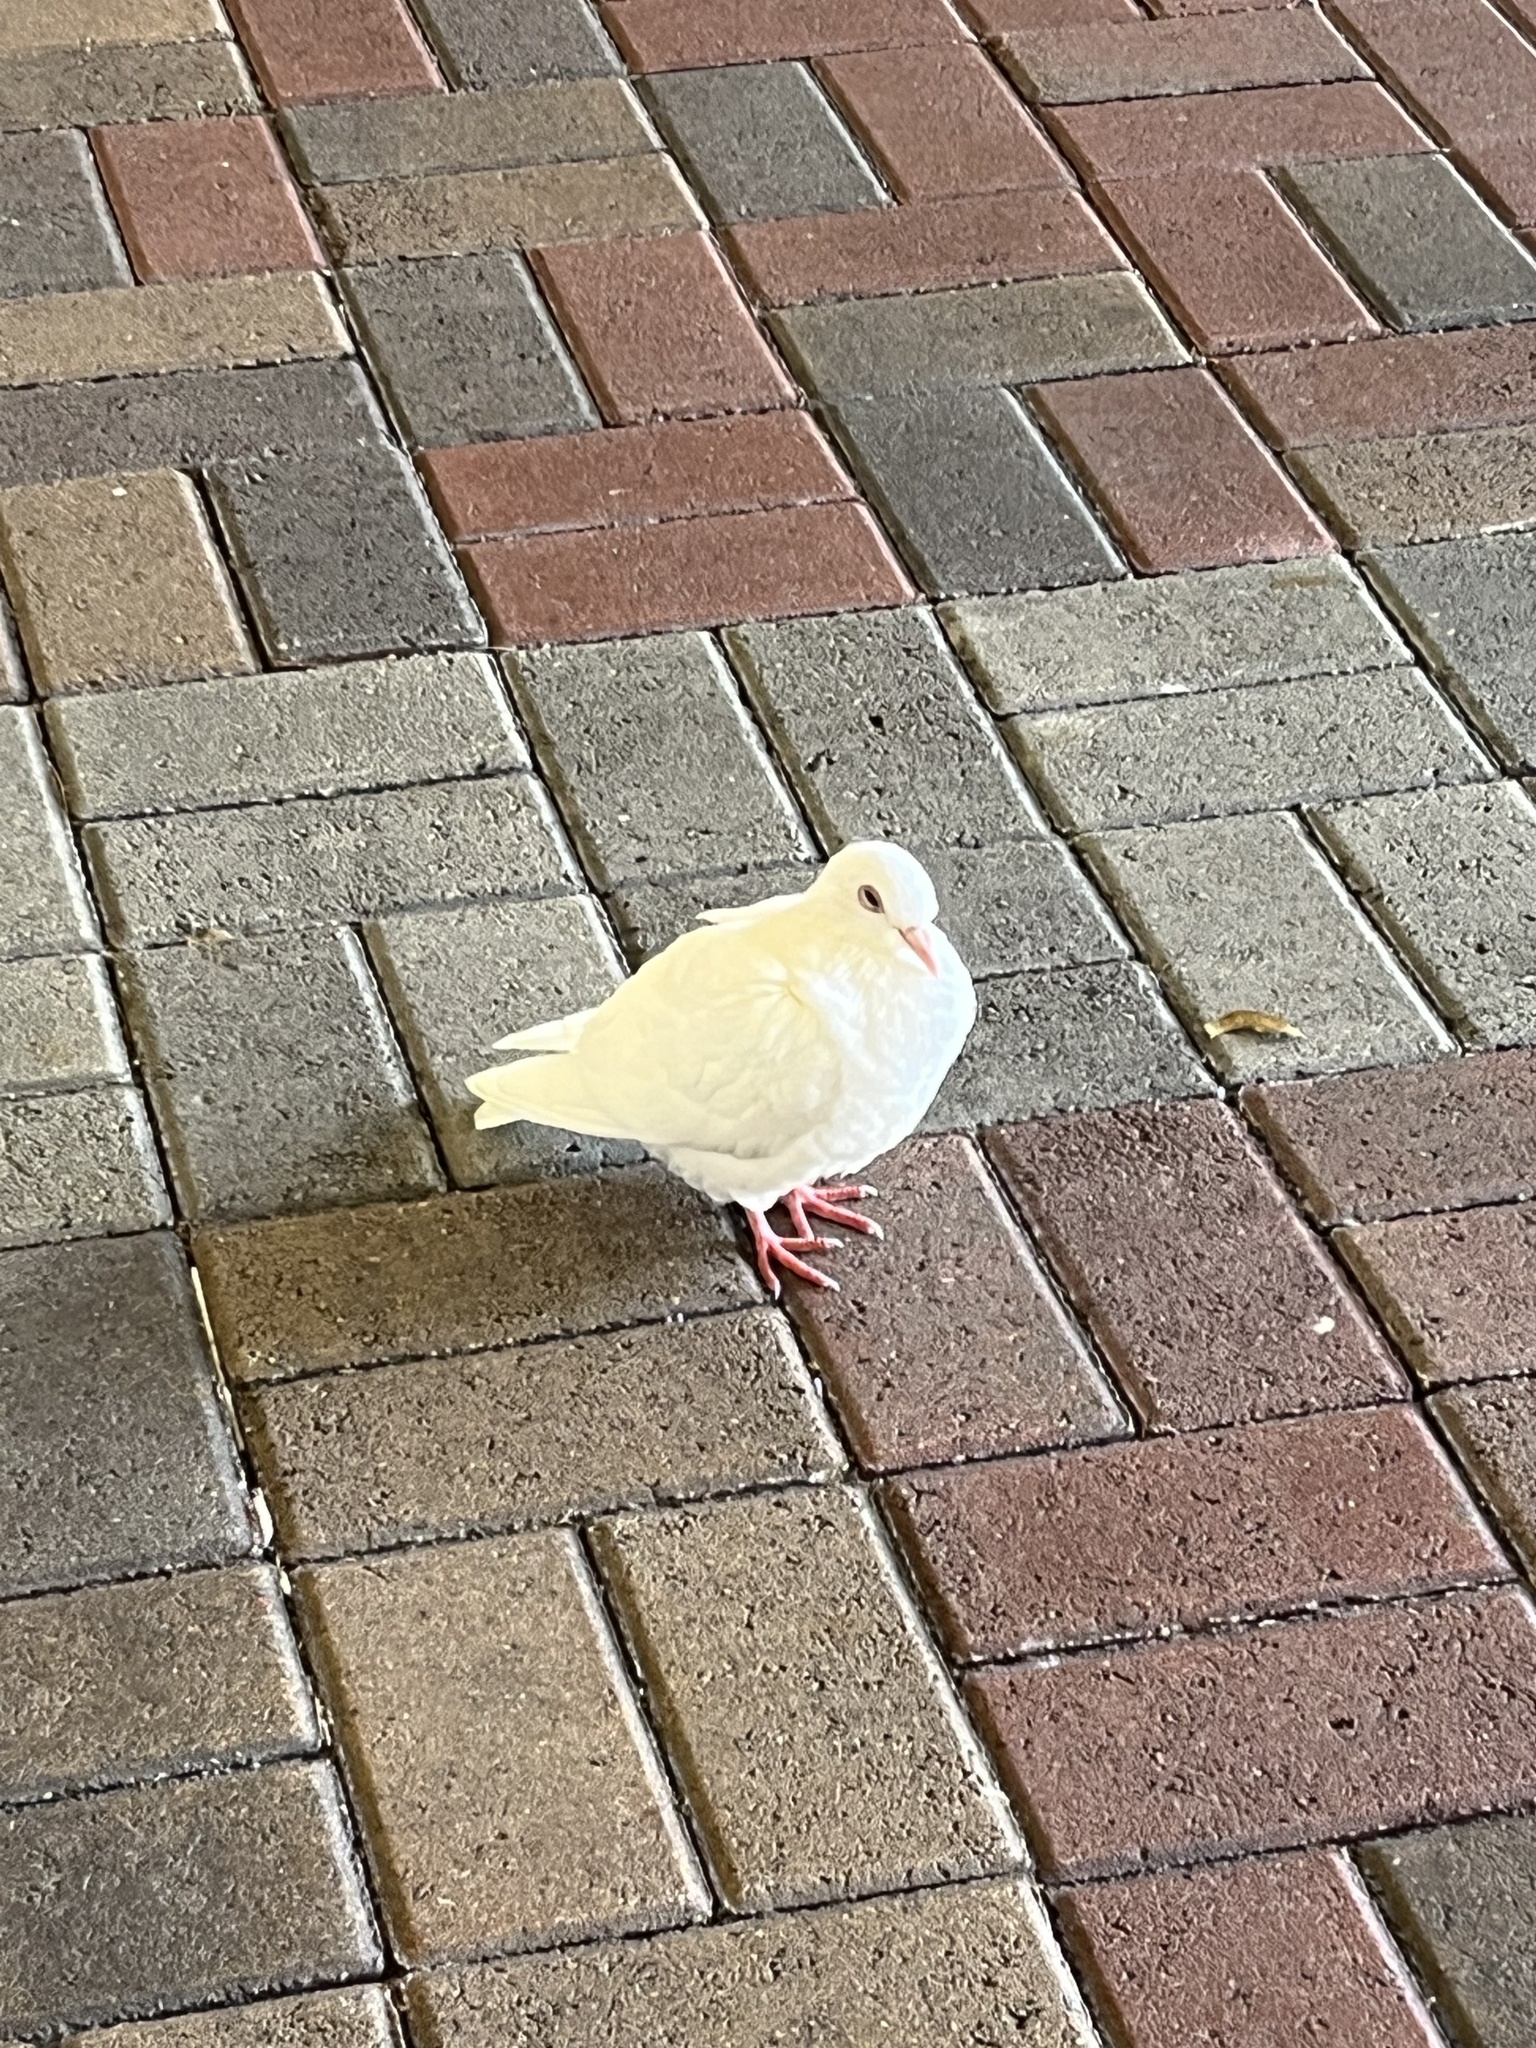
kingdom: Animalia
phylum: Chordata
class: Aves
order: Columbiformes
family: Columbidae
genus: Columba
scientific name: Columba livia
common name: Rock pigeon
